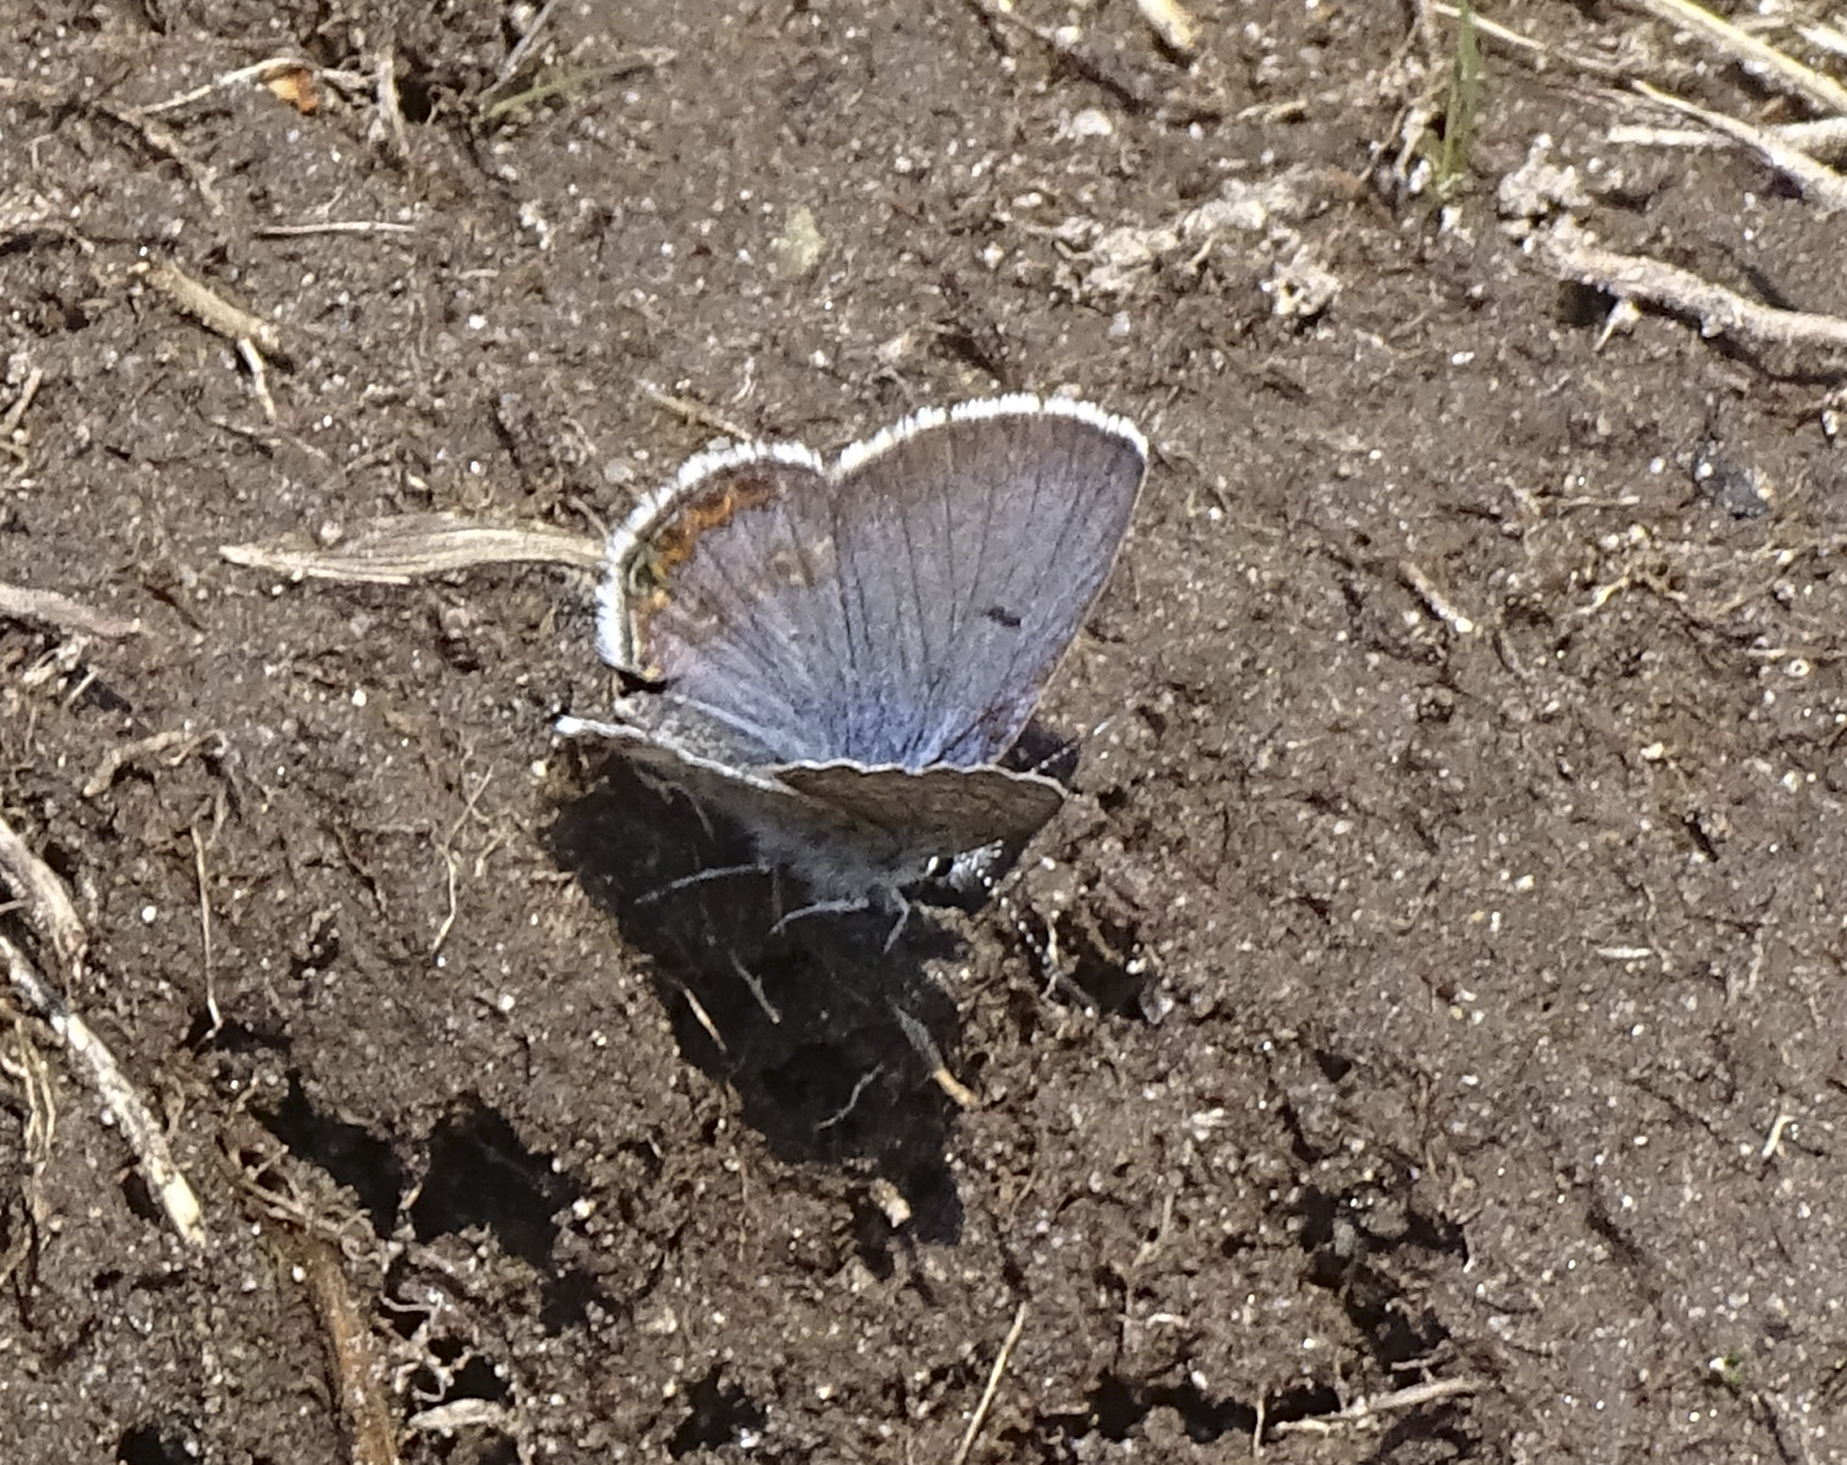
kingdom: Animalia
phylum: Arthropoda
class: Insecta
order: Lepidoptera
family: Lycaenidae
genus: Icaricia
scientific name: Icaricia shasta
